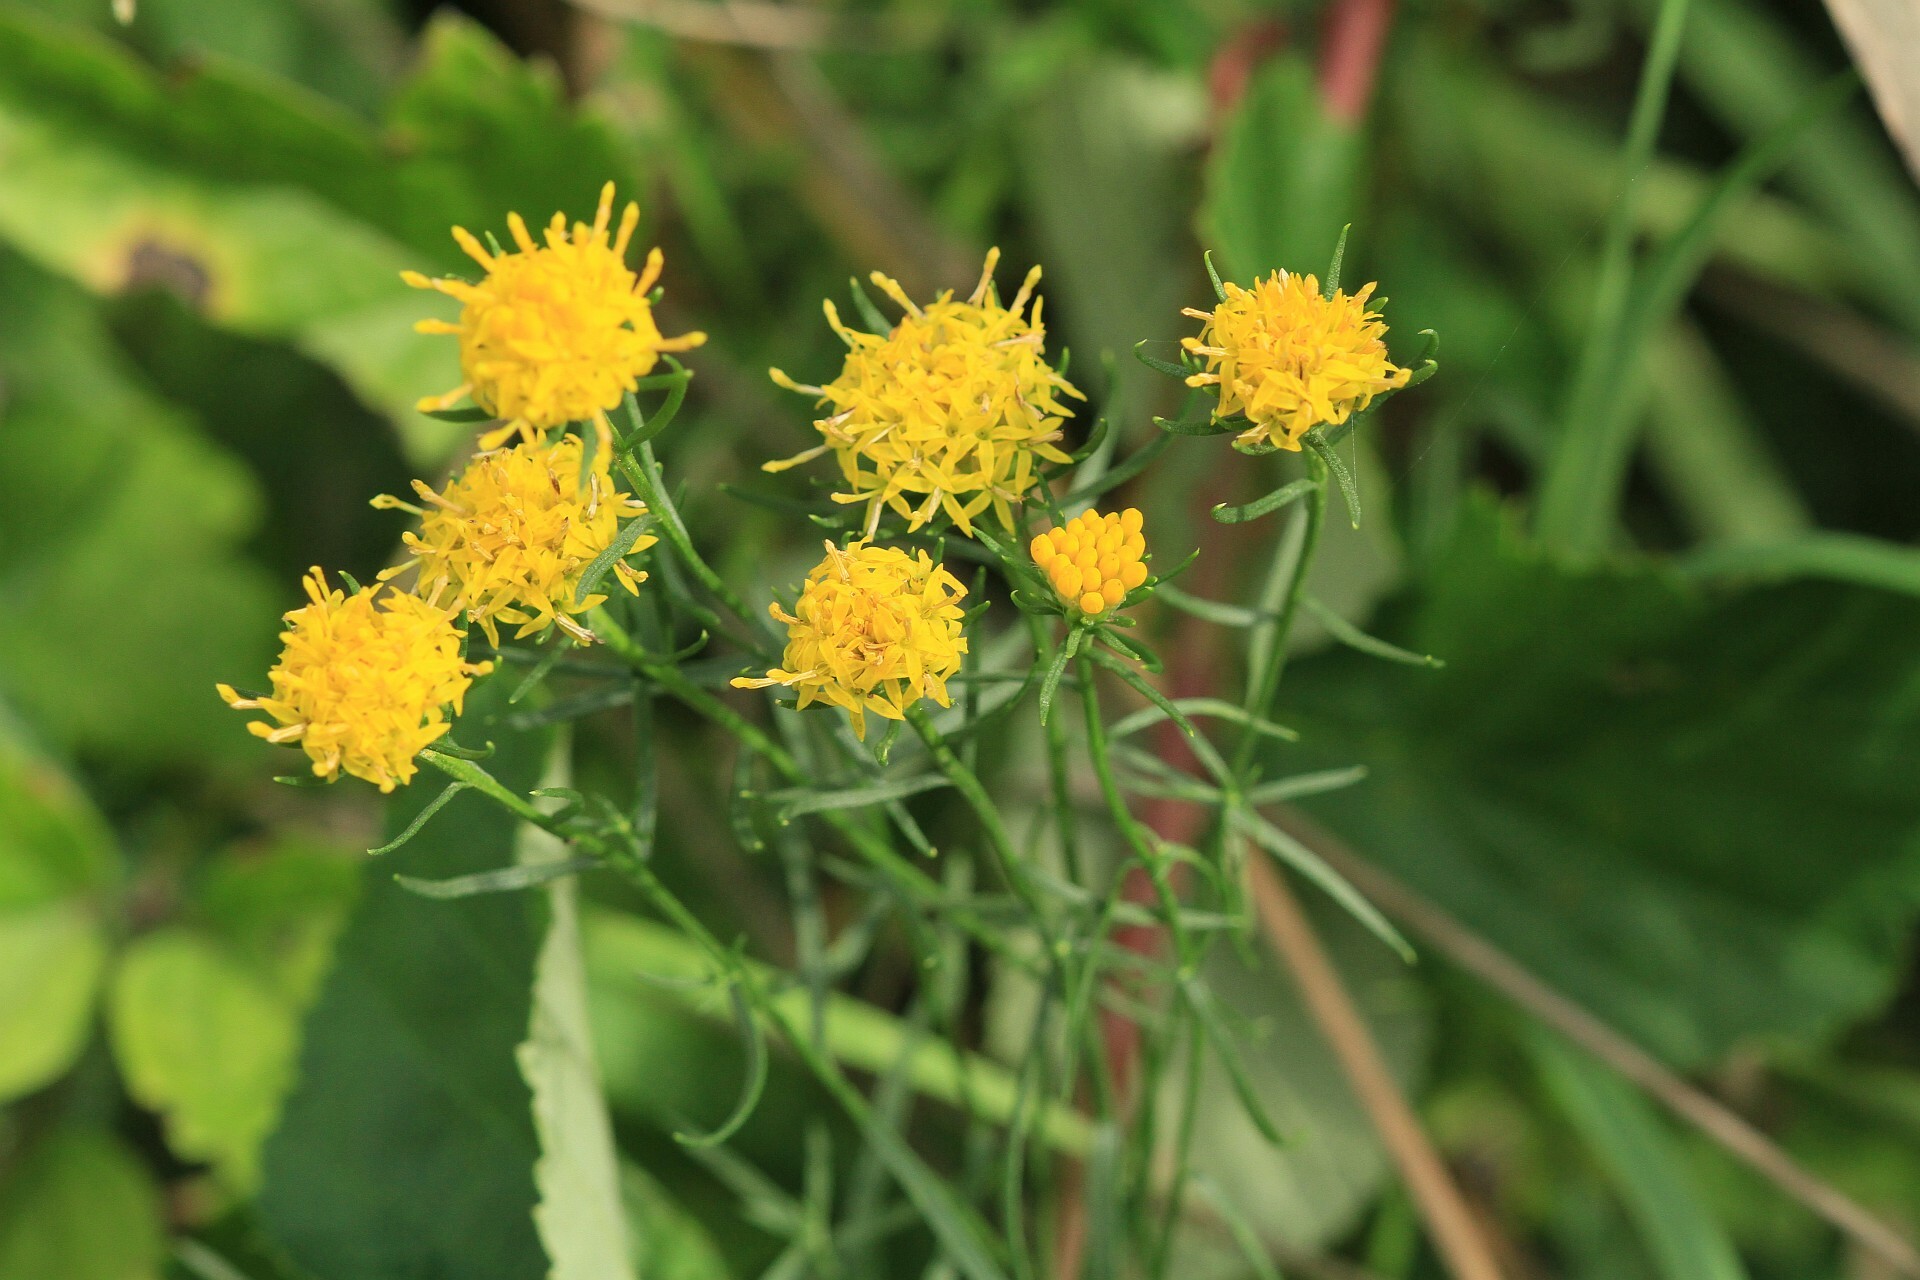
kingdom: Plantae
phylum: Tracheophyta
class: Magnoliopsida
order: Asterales
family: Asteraceae
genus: Galatella
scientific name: Galatella linosyris
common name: Goldilocks aster
